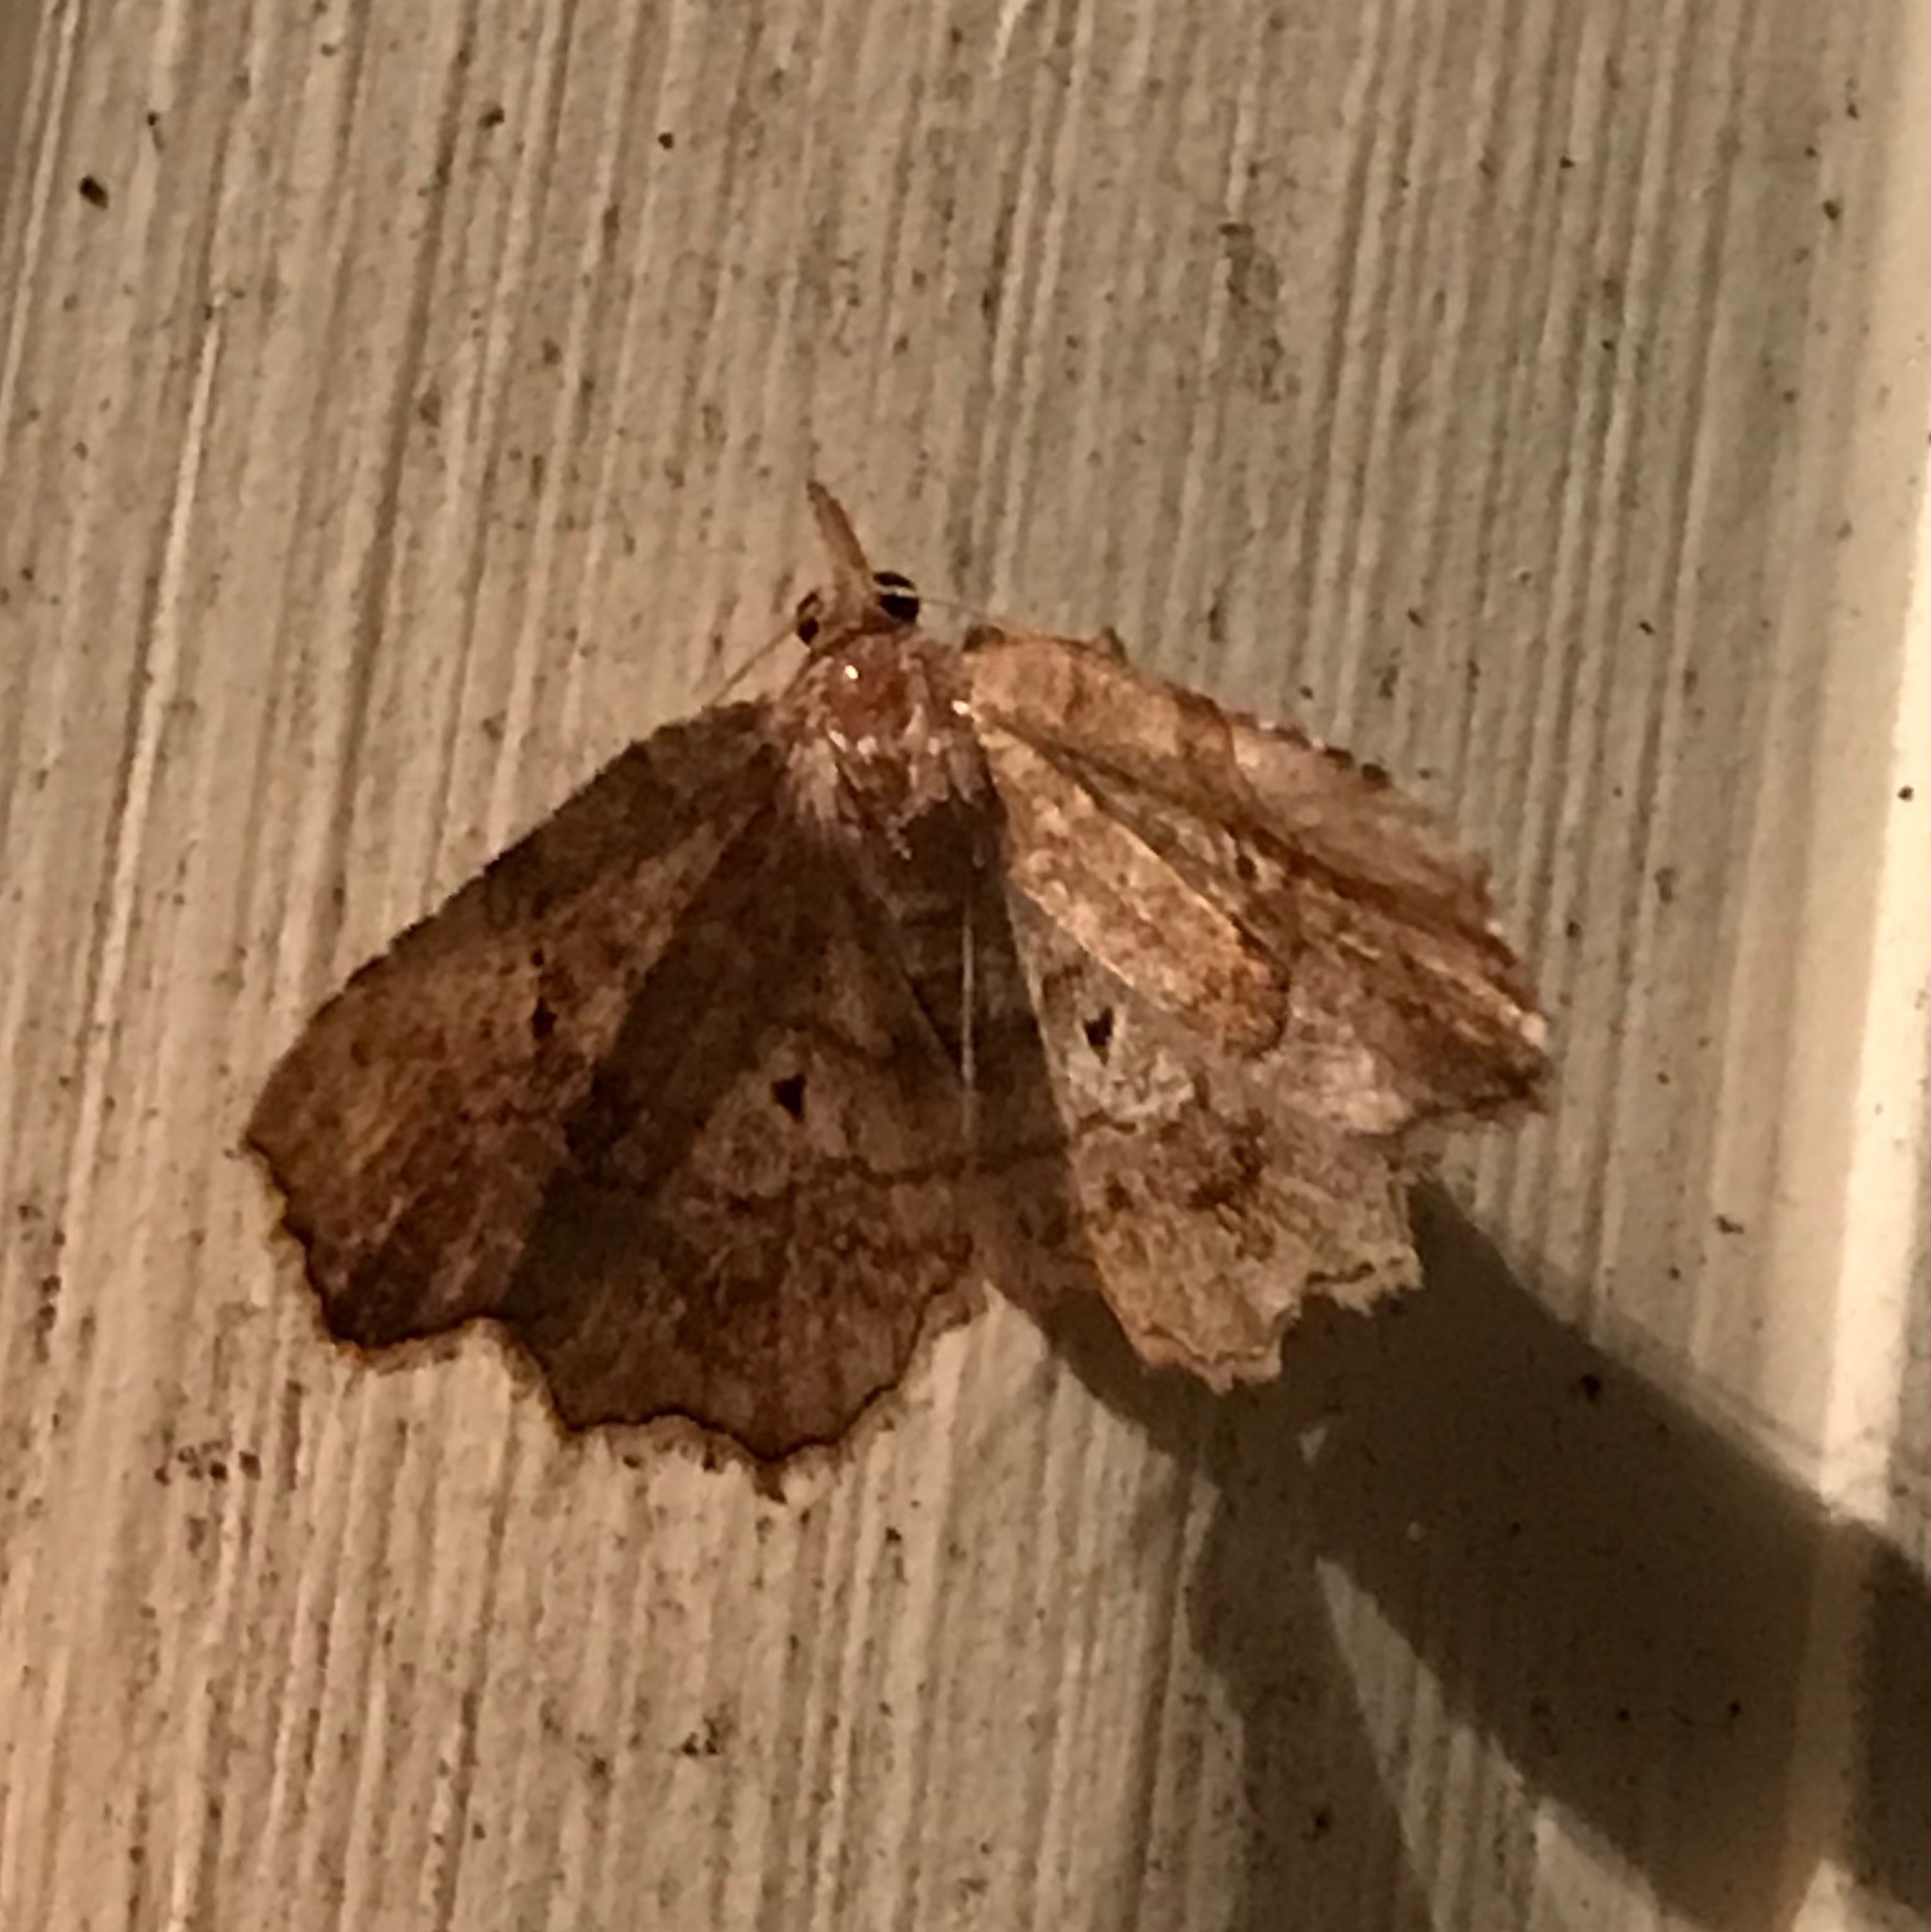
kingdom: Animalia
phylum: Arthropoda
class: Insecta
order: Lepidoptera
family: Erebidae
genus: Pangrapta
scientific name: Pangrapta decoralis
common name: Decorated owlet
